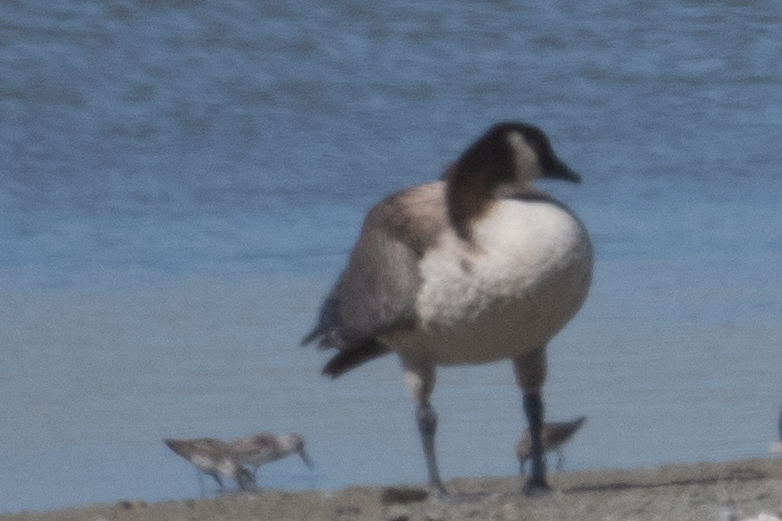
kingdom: Animalia
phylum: Chordata
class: Aves
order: Anseriformes
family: Anatidae
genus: Branta
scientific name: Branta canadensis
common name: Canada goose
